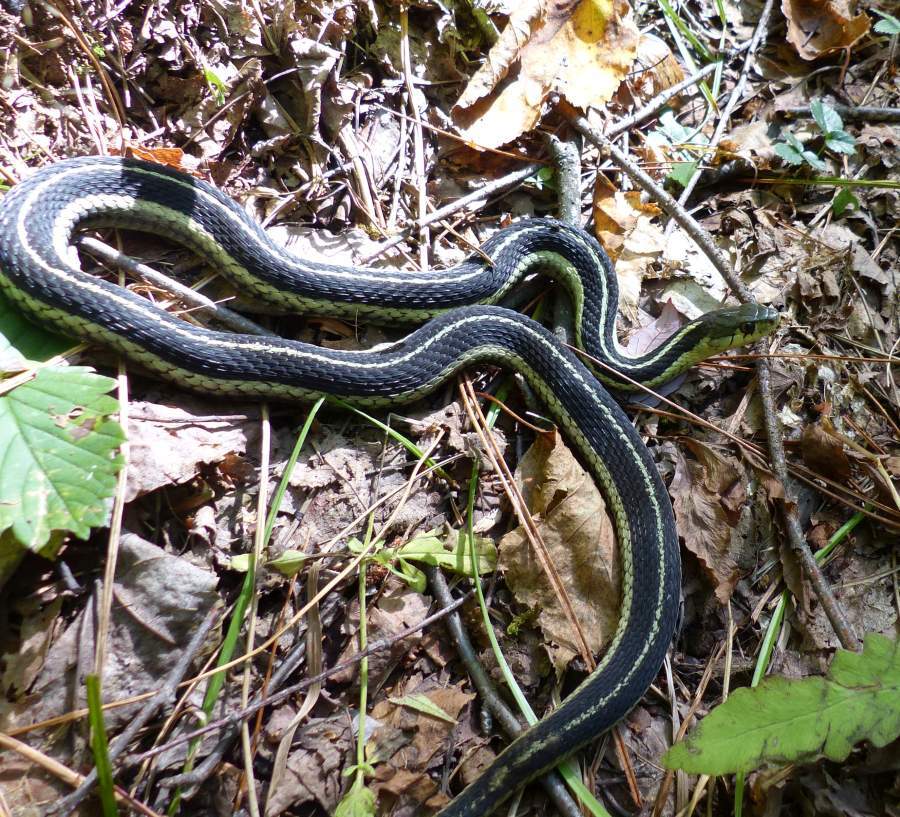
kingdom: Animalia
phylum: Chordata
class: Squamata
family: Colubridae
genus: Thamnophis
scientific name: Thamnophis sirtalis
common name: Common garter snake
